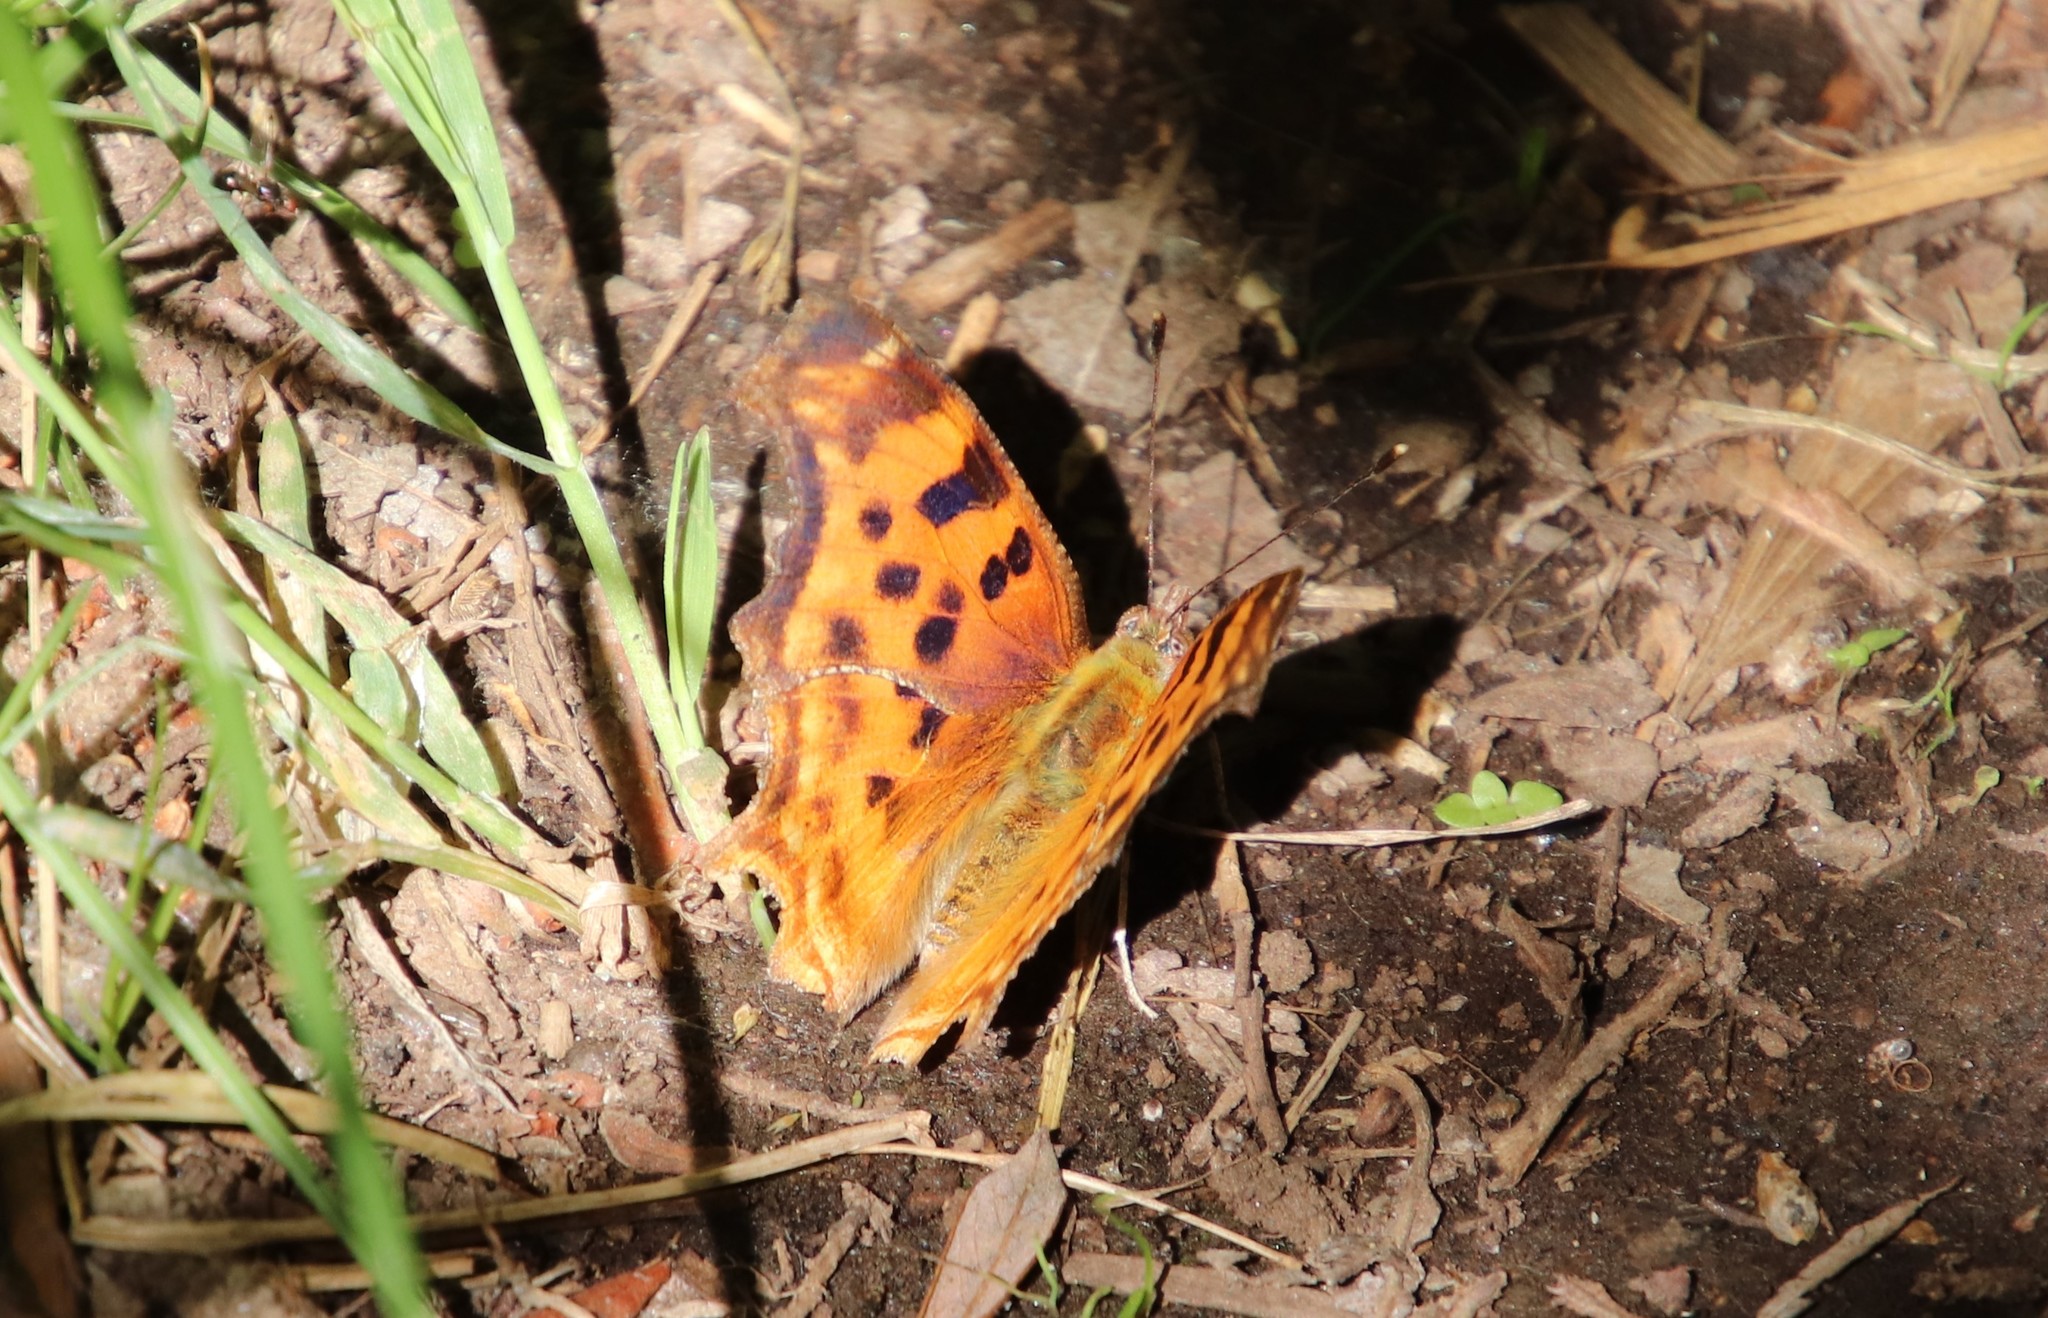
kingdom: Animalia
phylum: Arthropoda
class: Insecta
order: Lepidoptera
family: Nymphalidae
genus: Polygonia
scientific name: Polygonia satyrus
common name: Satyr angle wing
